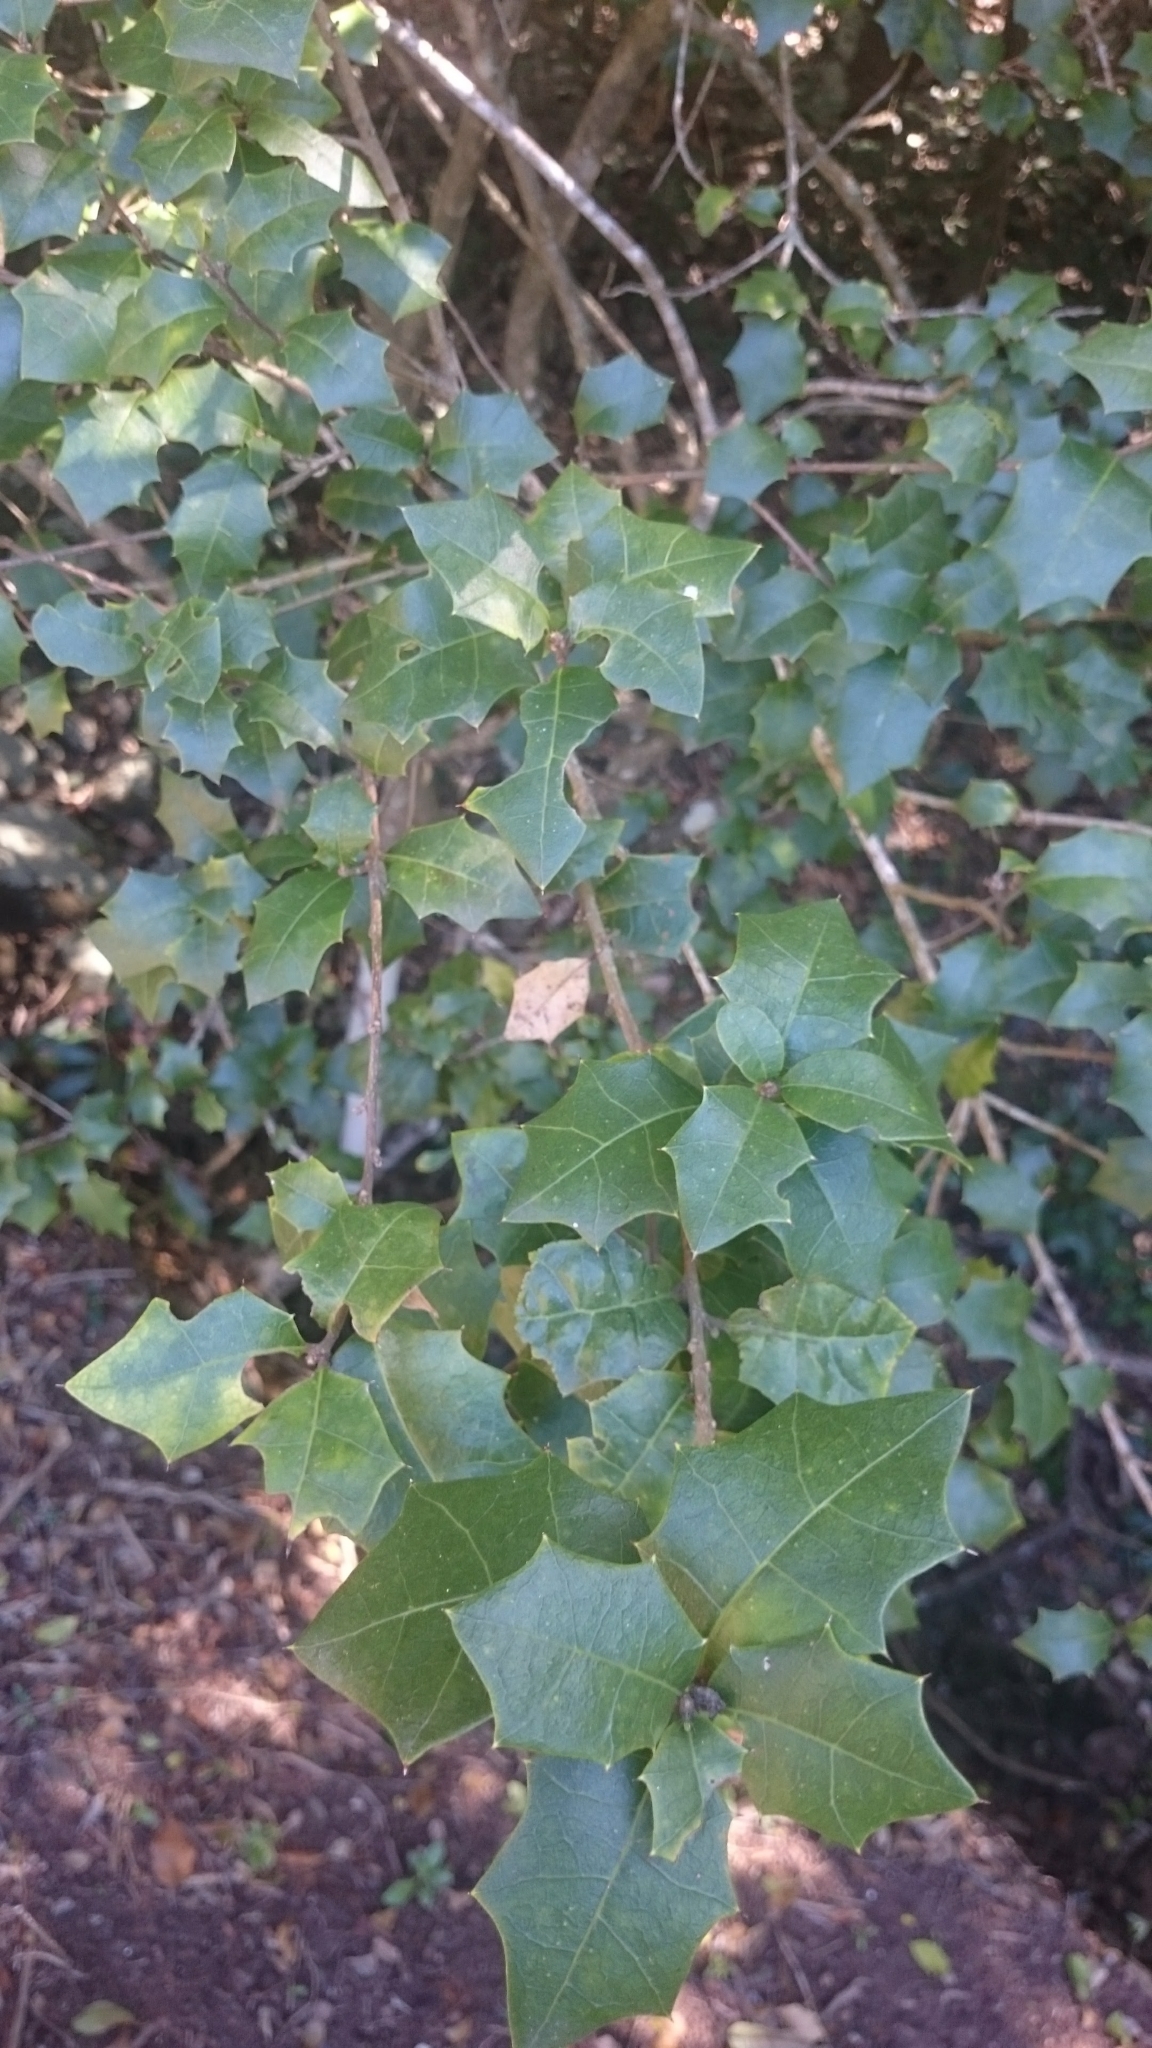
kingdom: Plantae
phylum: Tracheophyta
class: Magnoliopsida
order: Malpighiales
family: Euphorbiaceae
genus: Alchornea
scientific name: Alchornea ilicifolia
